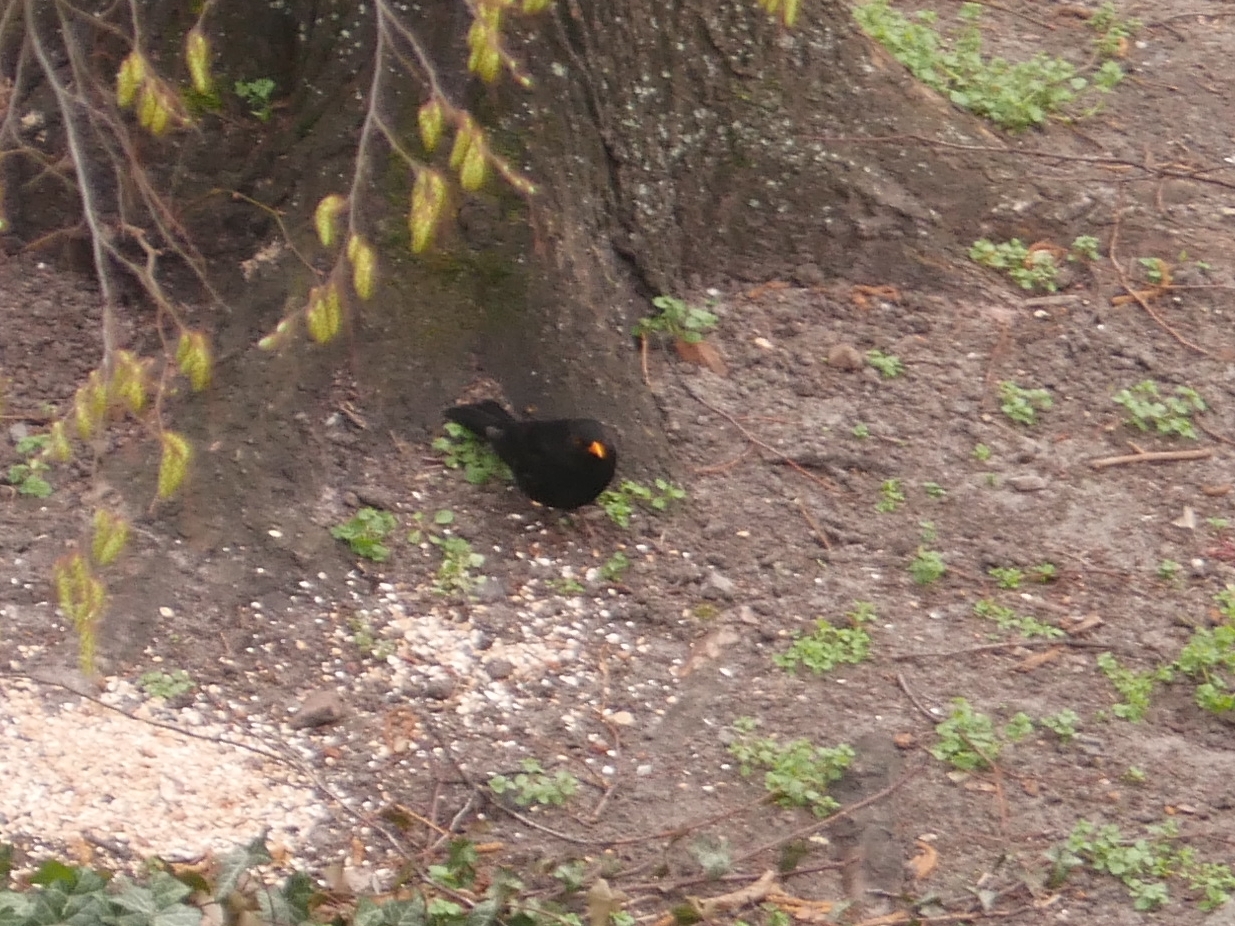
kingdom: Animalia
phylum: Chordata
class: Aves
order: Passeriformes
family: Turdidae
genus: Turdus
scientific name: Turdus merula
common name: Common blackbird
